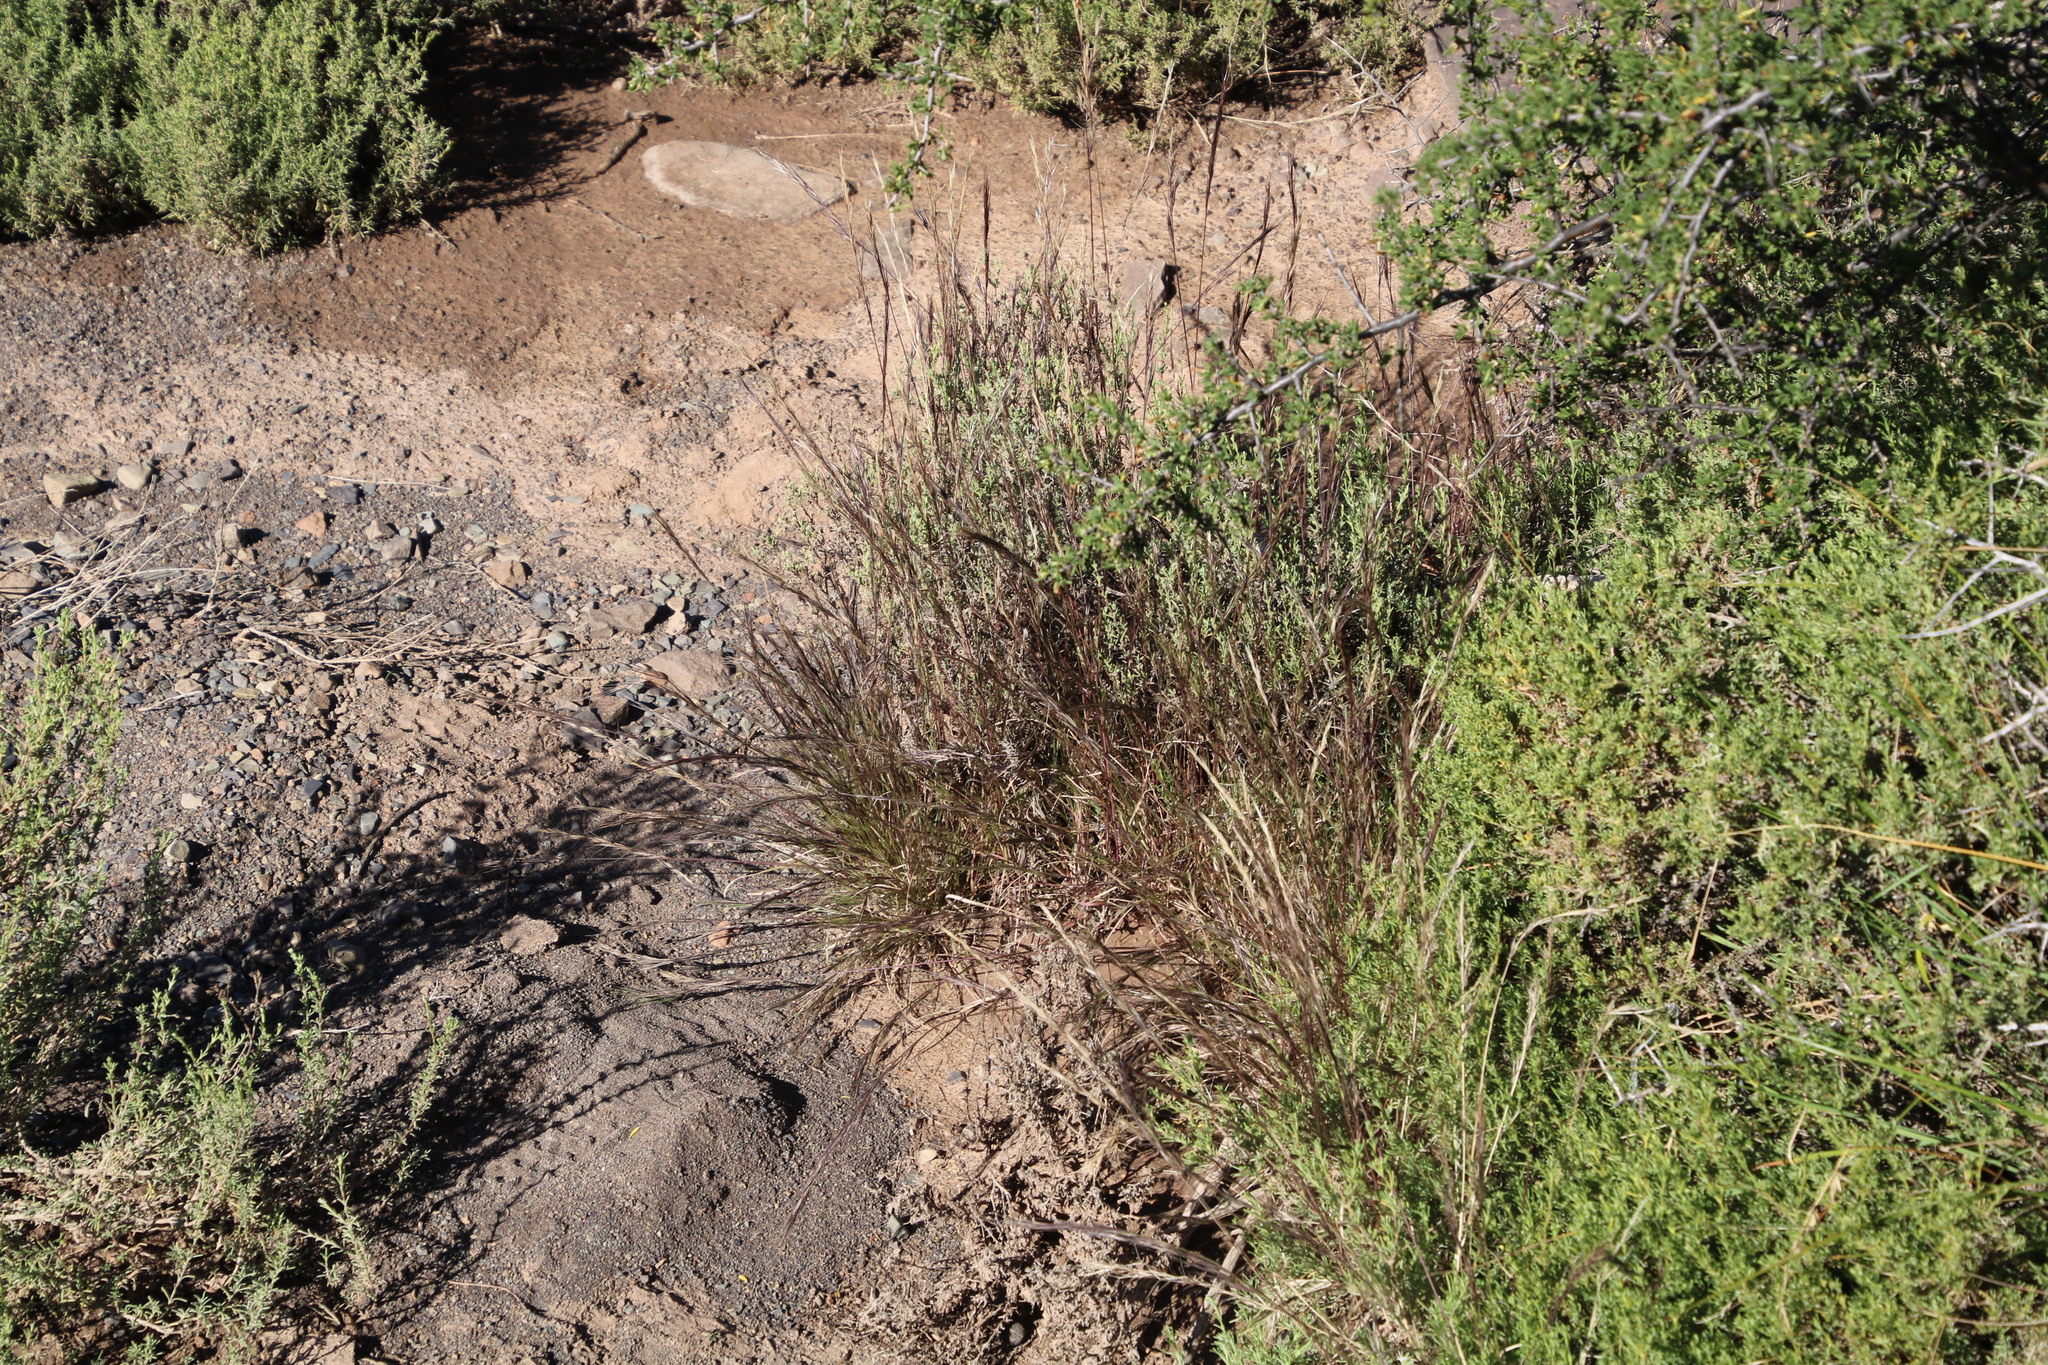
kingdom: Plantae
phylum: Tracheophyta
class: Liliopsida
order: Poales
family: Poaceae
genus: Aristida
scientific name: Aristida adscensionis
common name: Sixweeks threeawn
